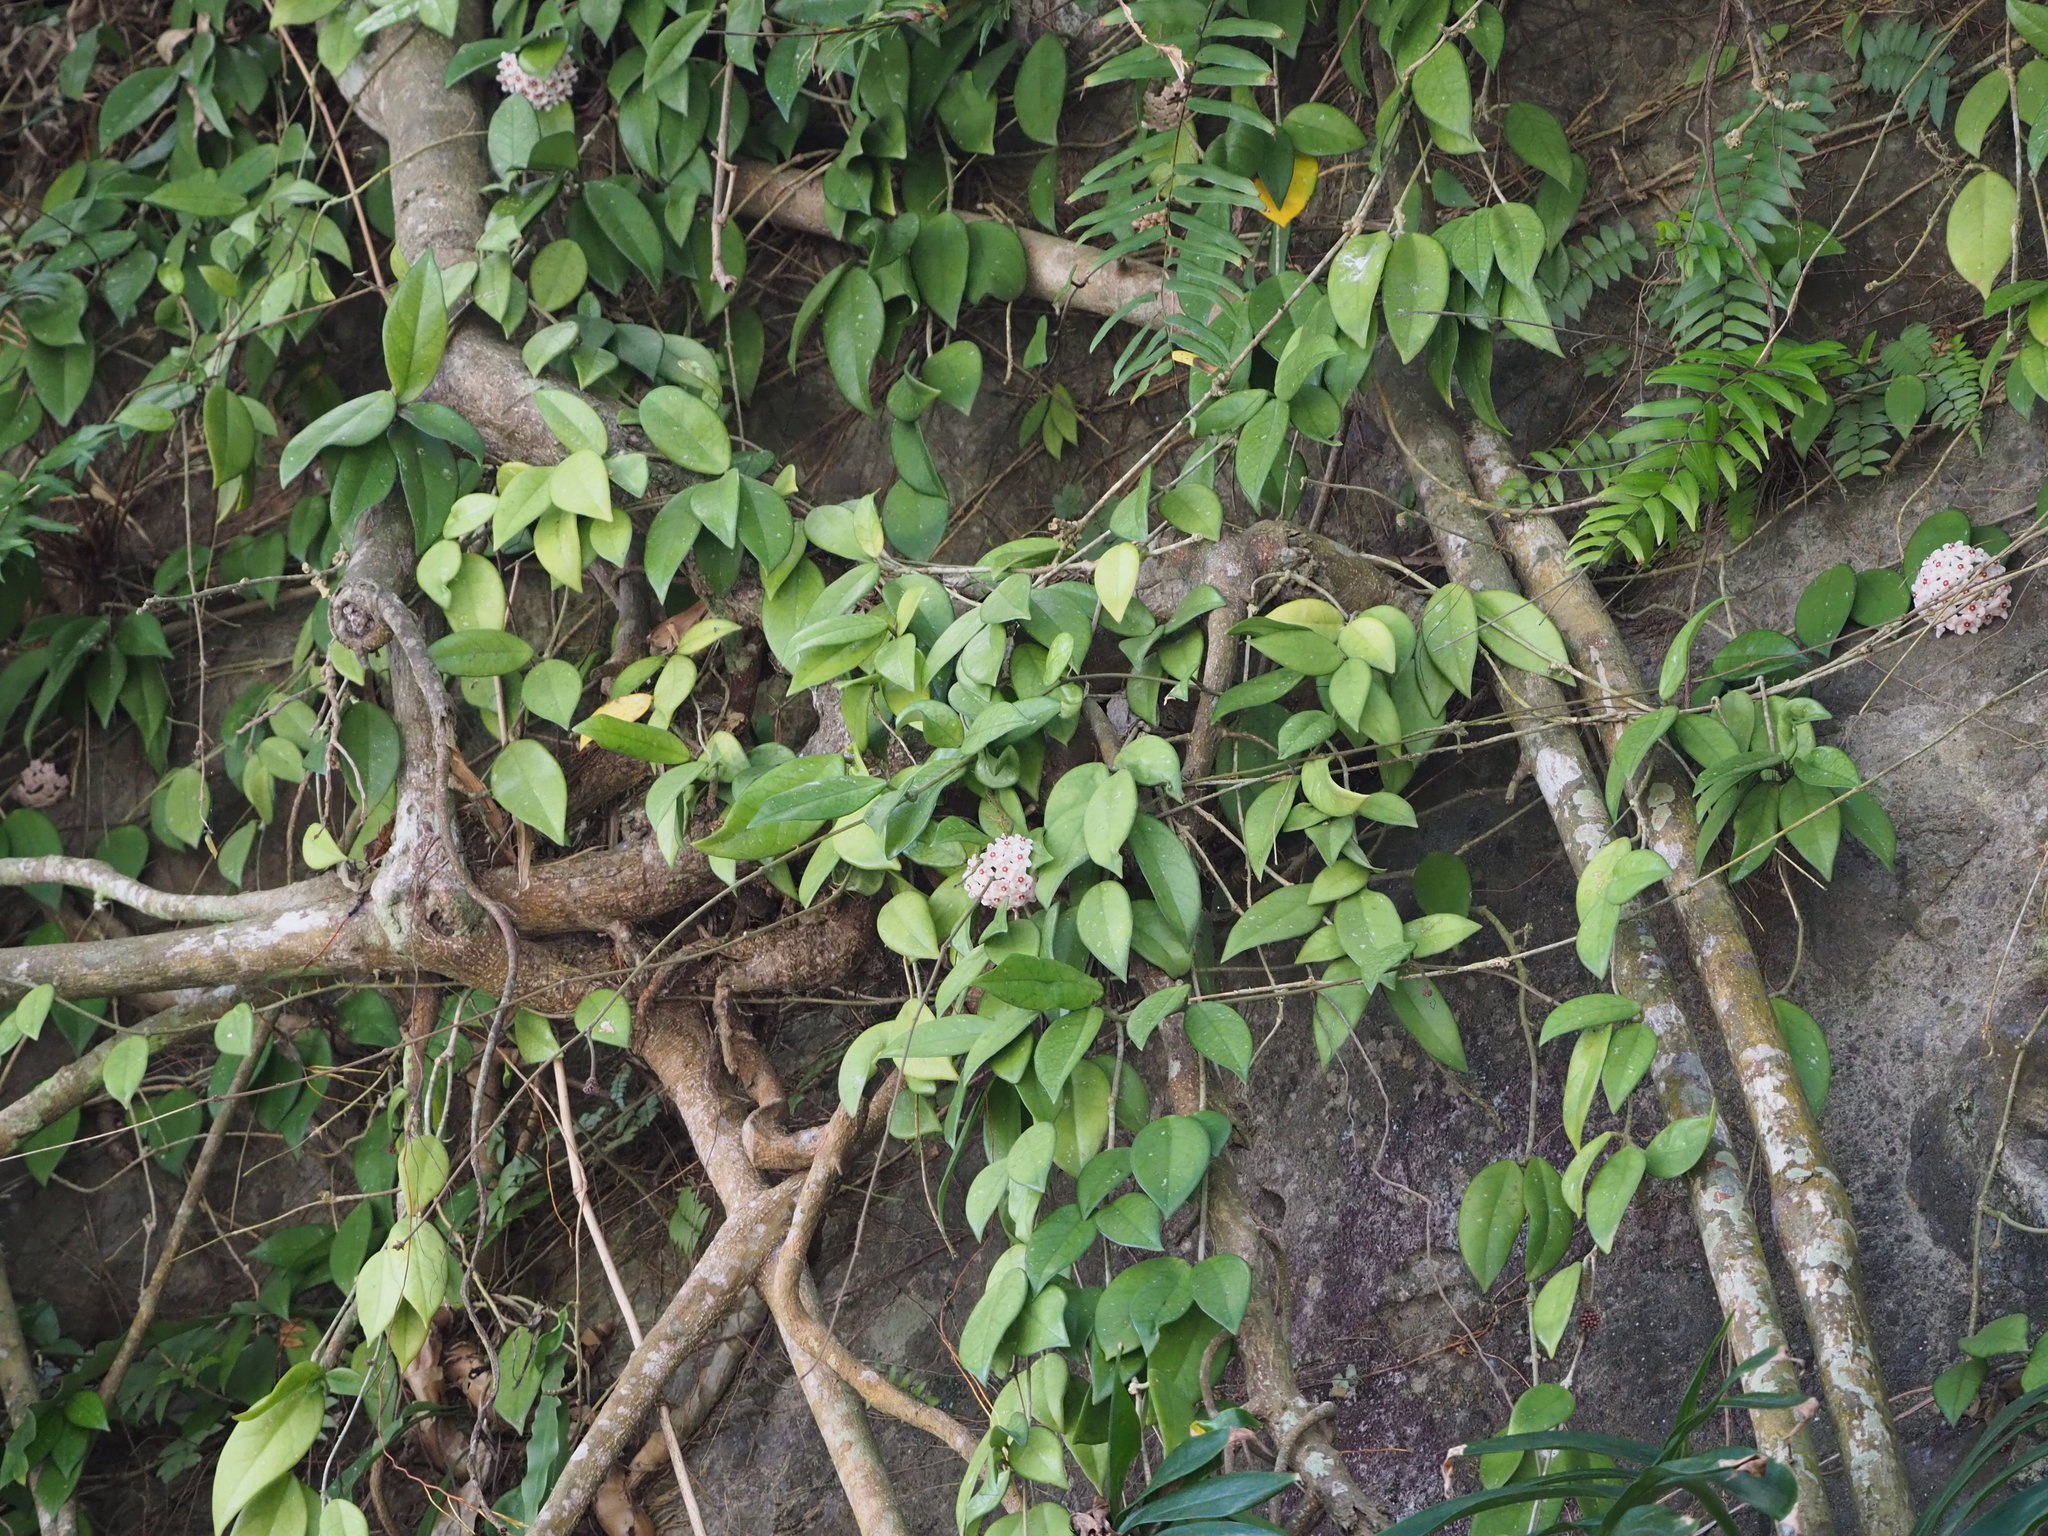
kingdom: Plantae
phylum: Tracheophyta
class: Magnoliopsida
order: Gentianales
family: Apocynaceae
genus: Hoya
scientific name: Hoya carnosa
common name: Honeyplant
